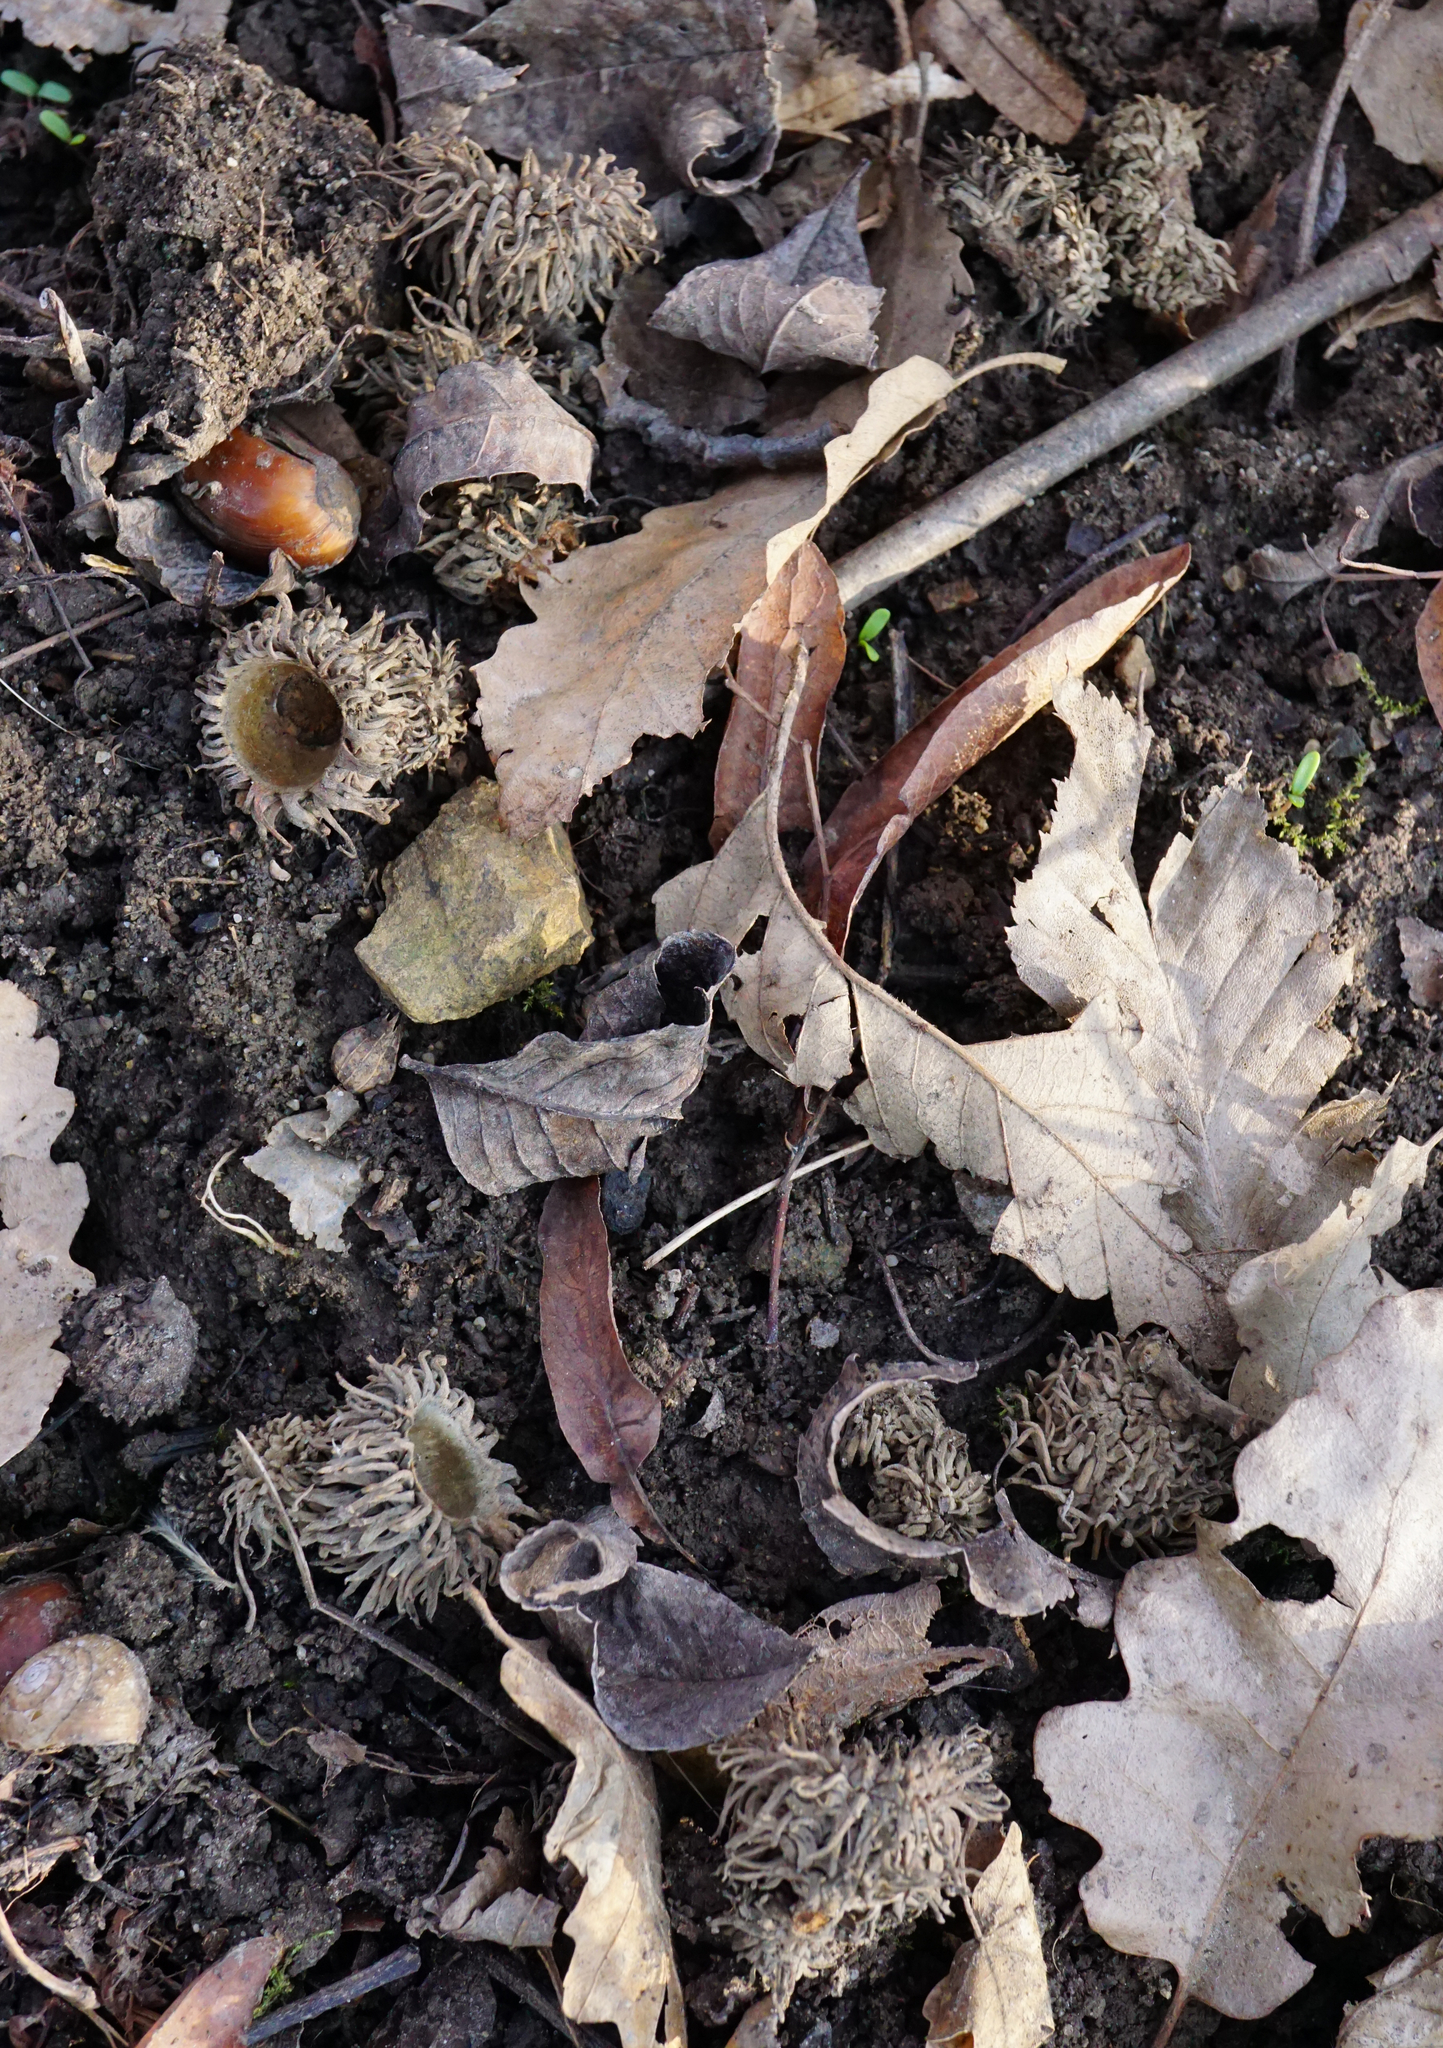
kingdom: Plantae
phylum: Tracheophyta
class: Magnoliopsida
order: Fagales
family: Fagaceae
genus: Quercus
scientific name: Quercus cerris
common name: Turkey oak
